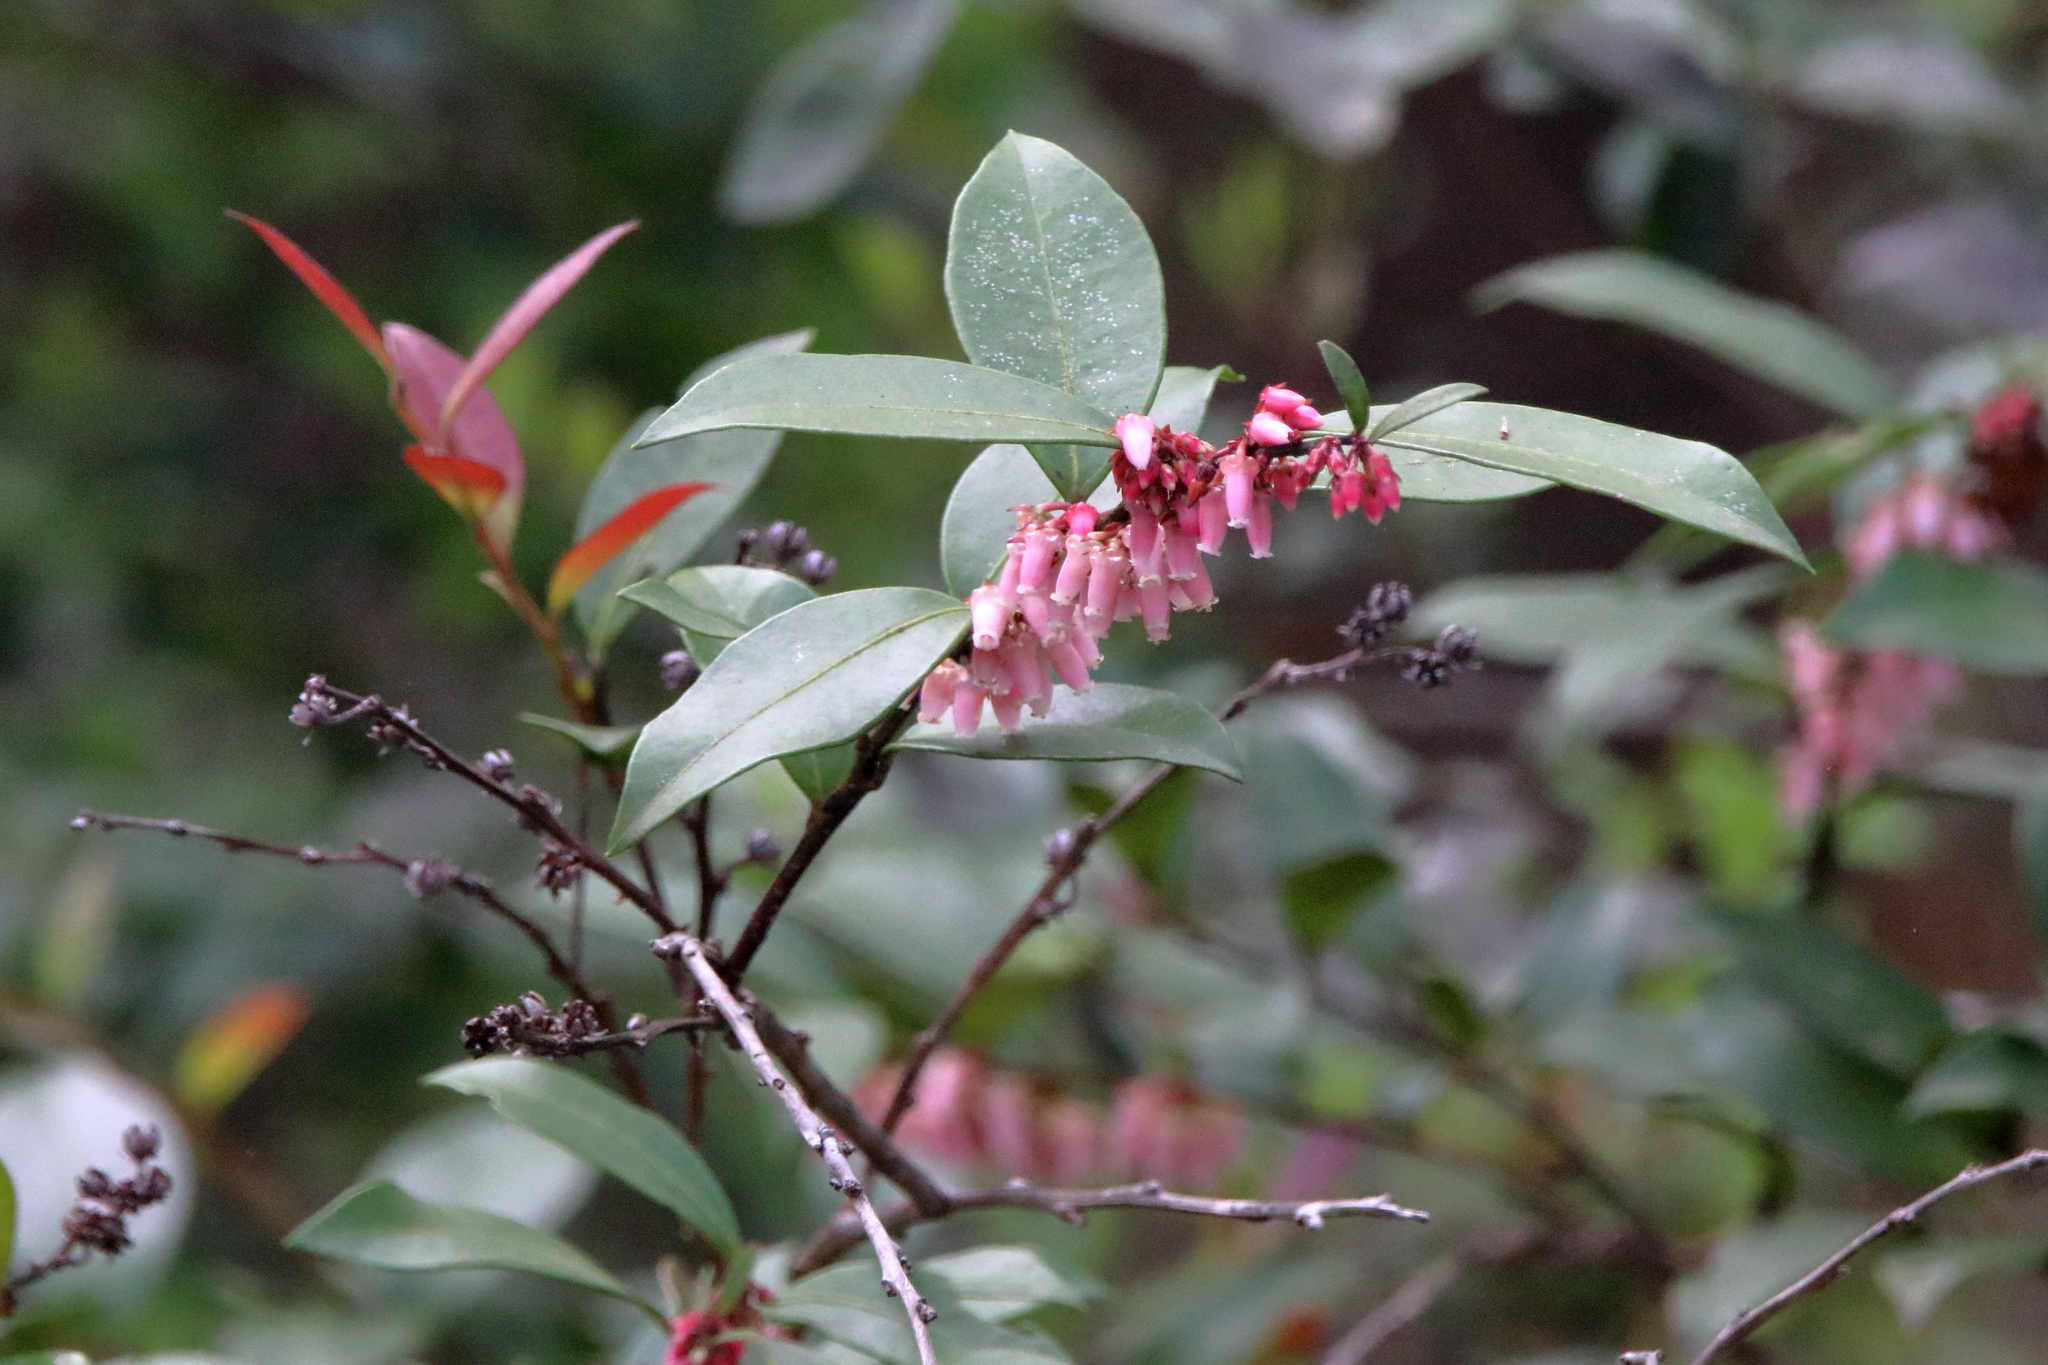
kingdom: Plantae
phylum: Tracheophyta
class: Magnoliopsida
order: Ericales
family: Ericaceae
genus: Lyonia
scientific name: Lyonia lucida
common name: Fetterbush
